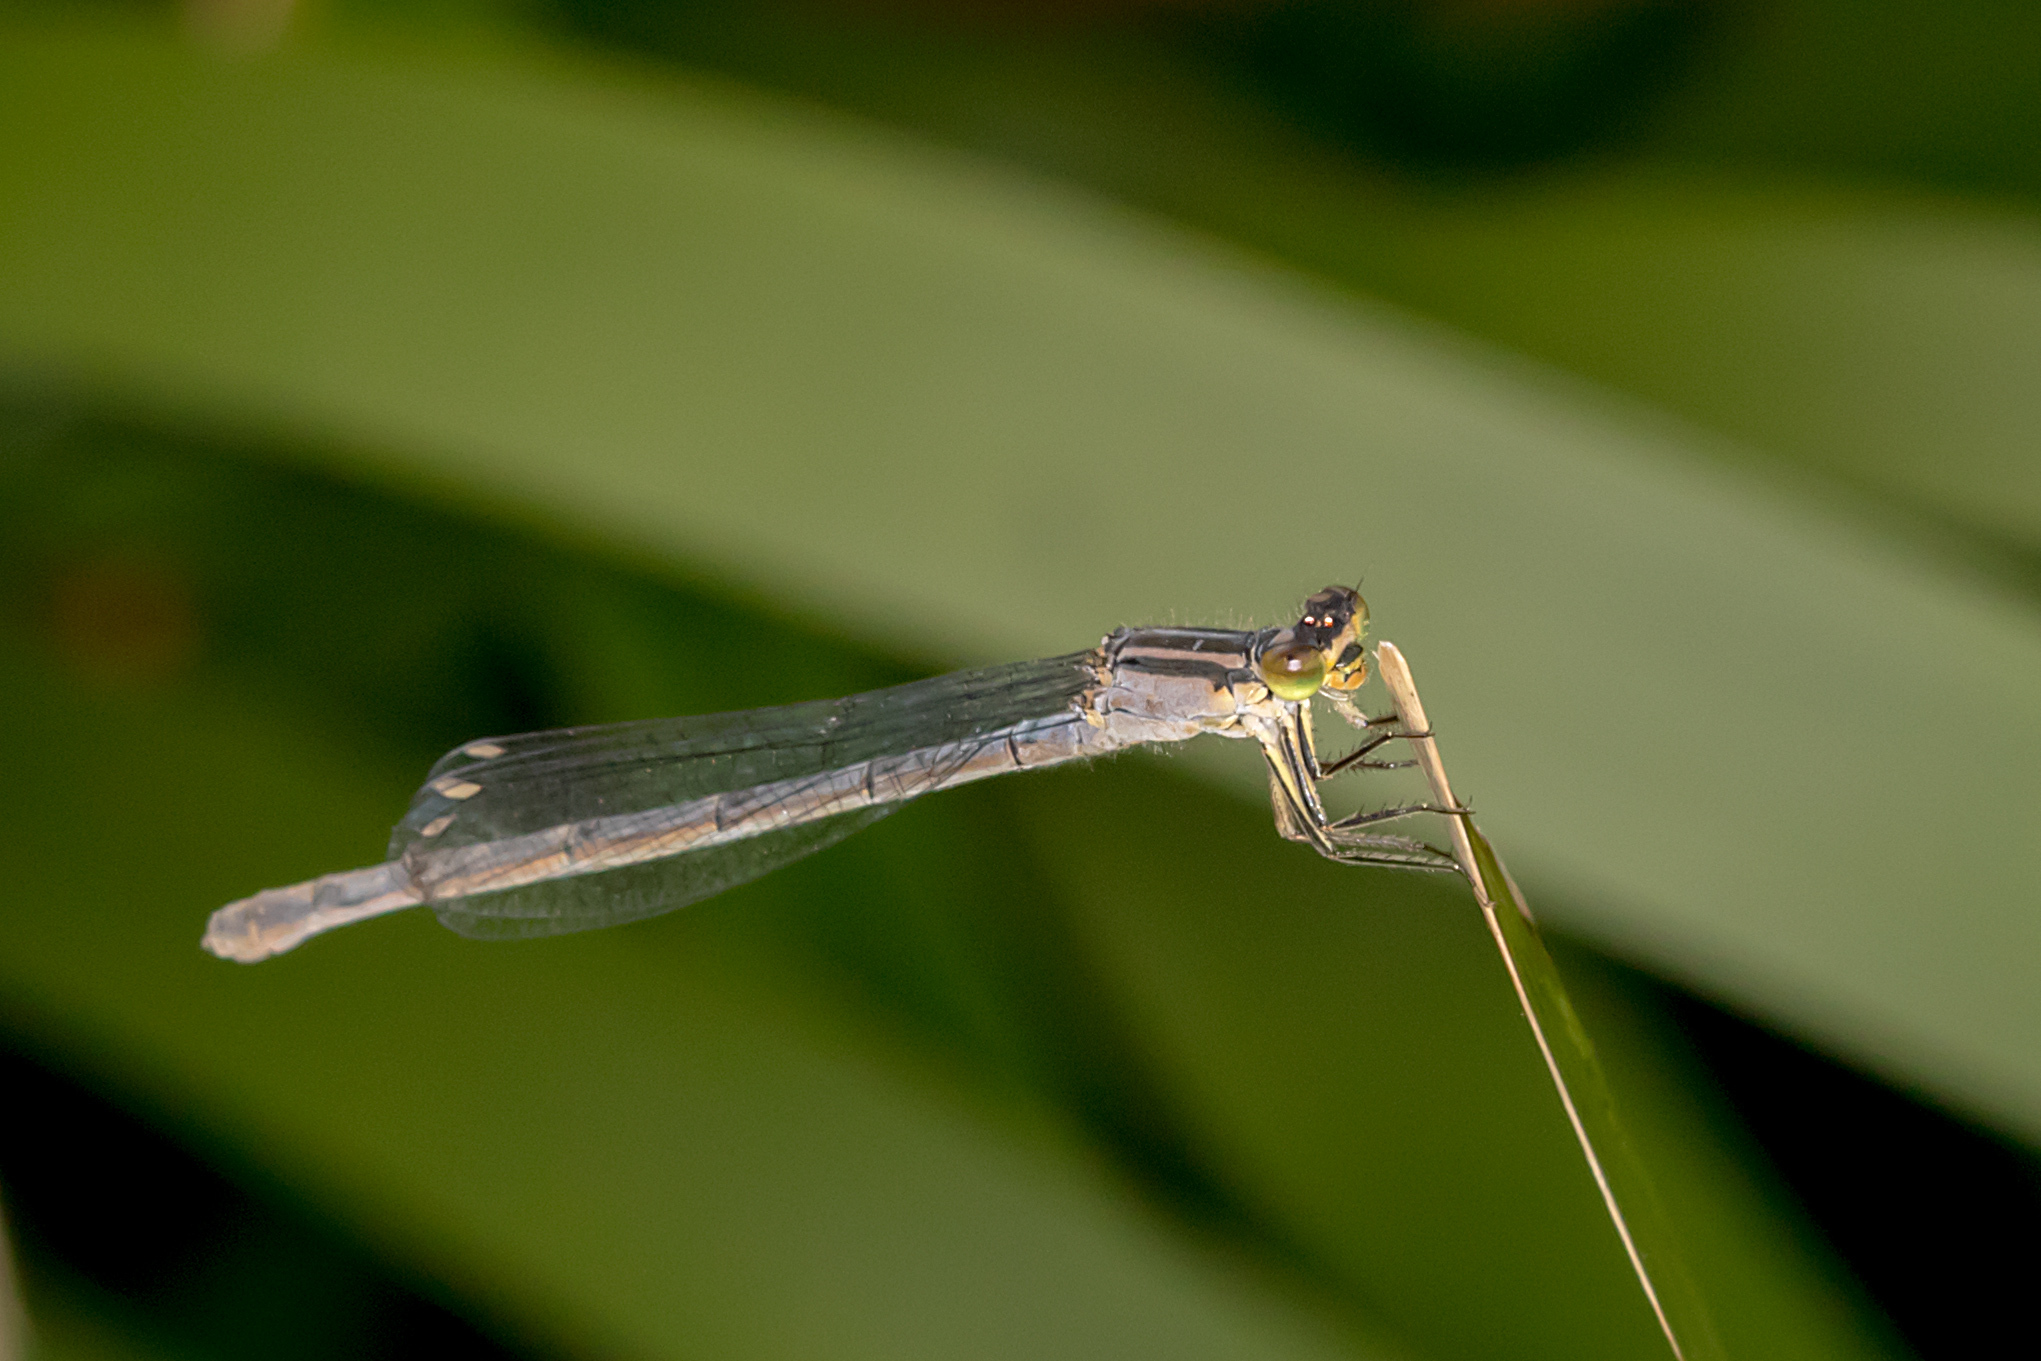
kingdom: Animalia
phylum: Arthropoda
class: Insecta
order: Odonata
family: Coenagrionidae
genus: Ischnura
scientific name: Ischnura heterosticta
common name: Common bluetail
